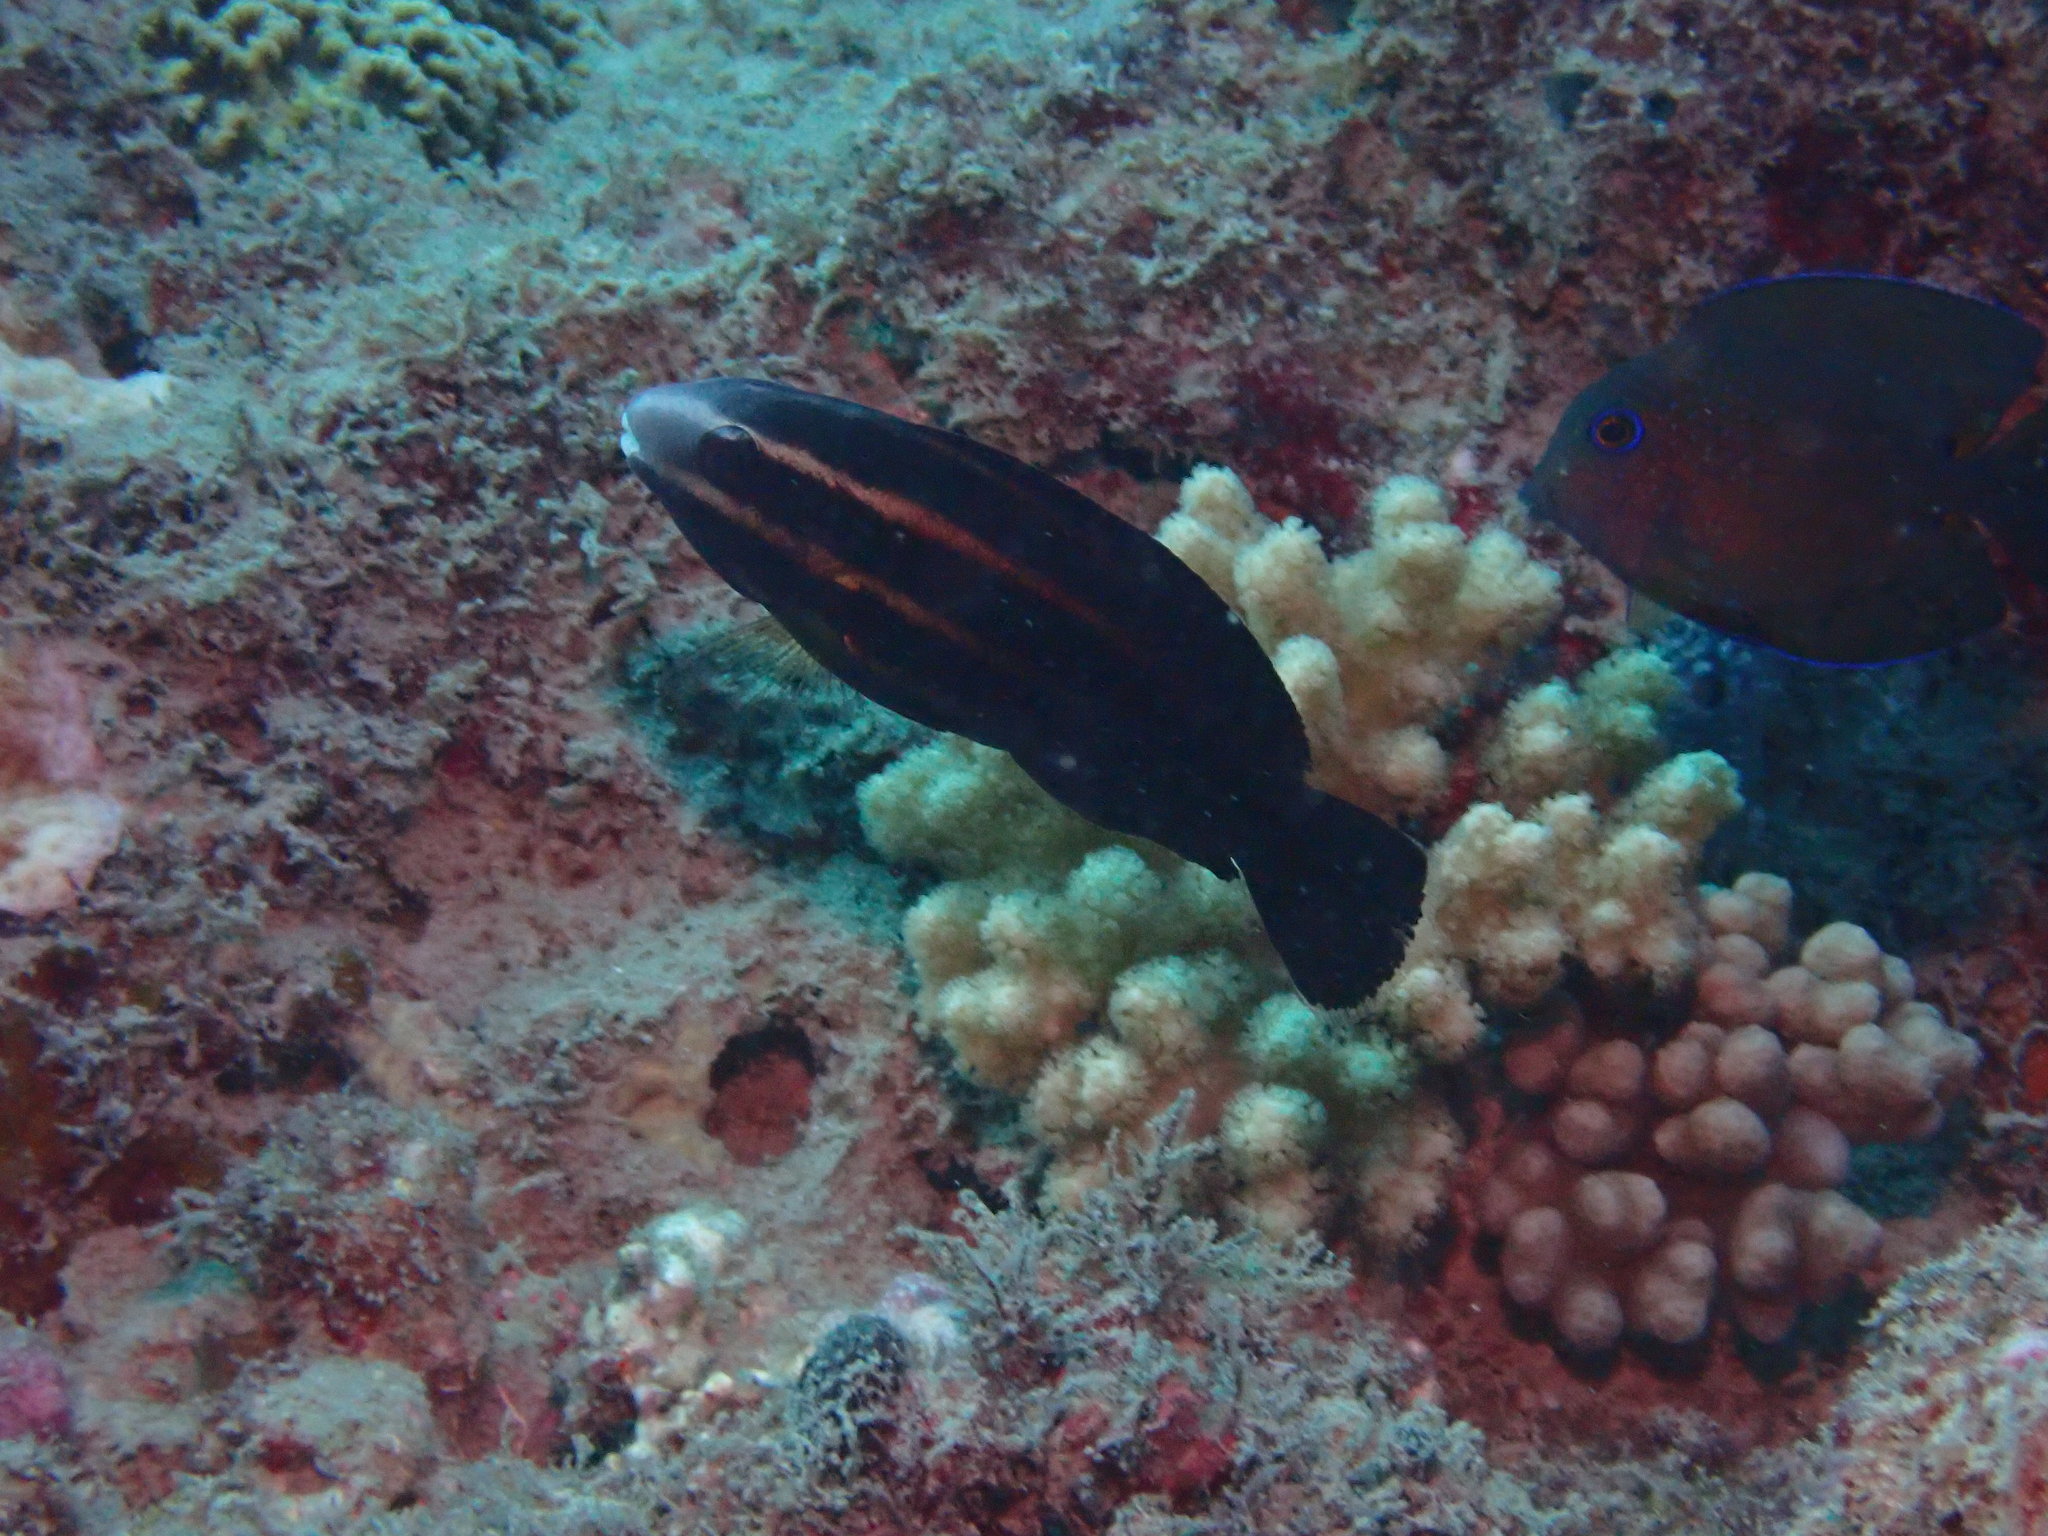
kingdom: Animalia
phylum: Chordata
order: Perciformes
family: Scaridae
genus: Chlorurus
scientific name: Chlorurus microrhinos
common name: Steephead parrotfish
